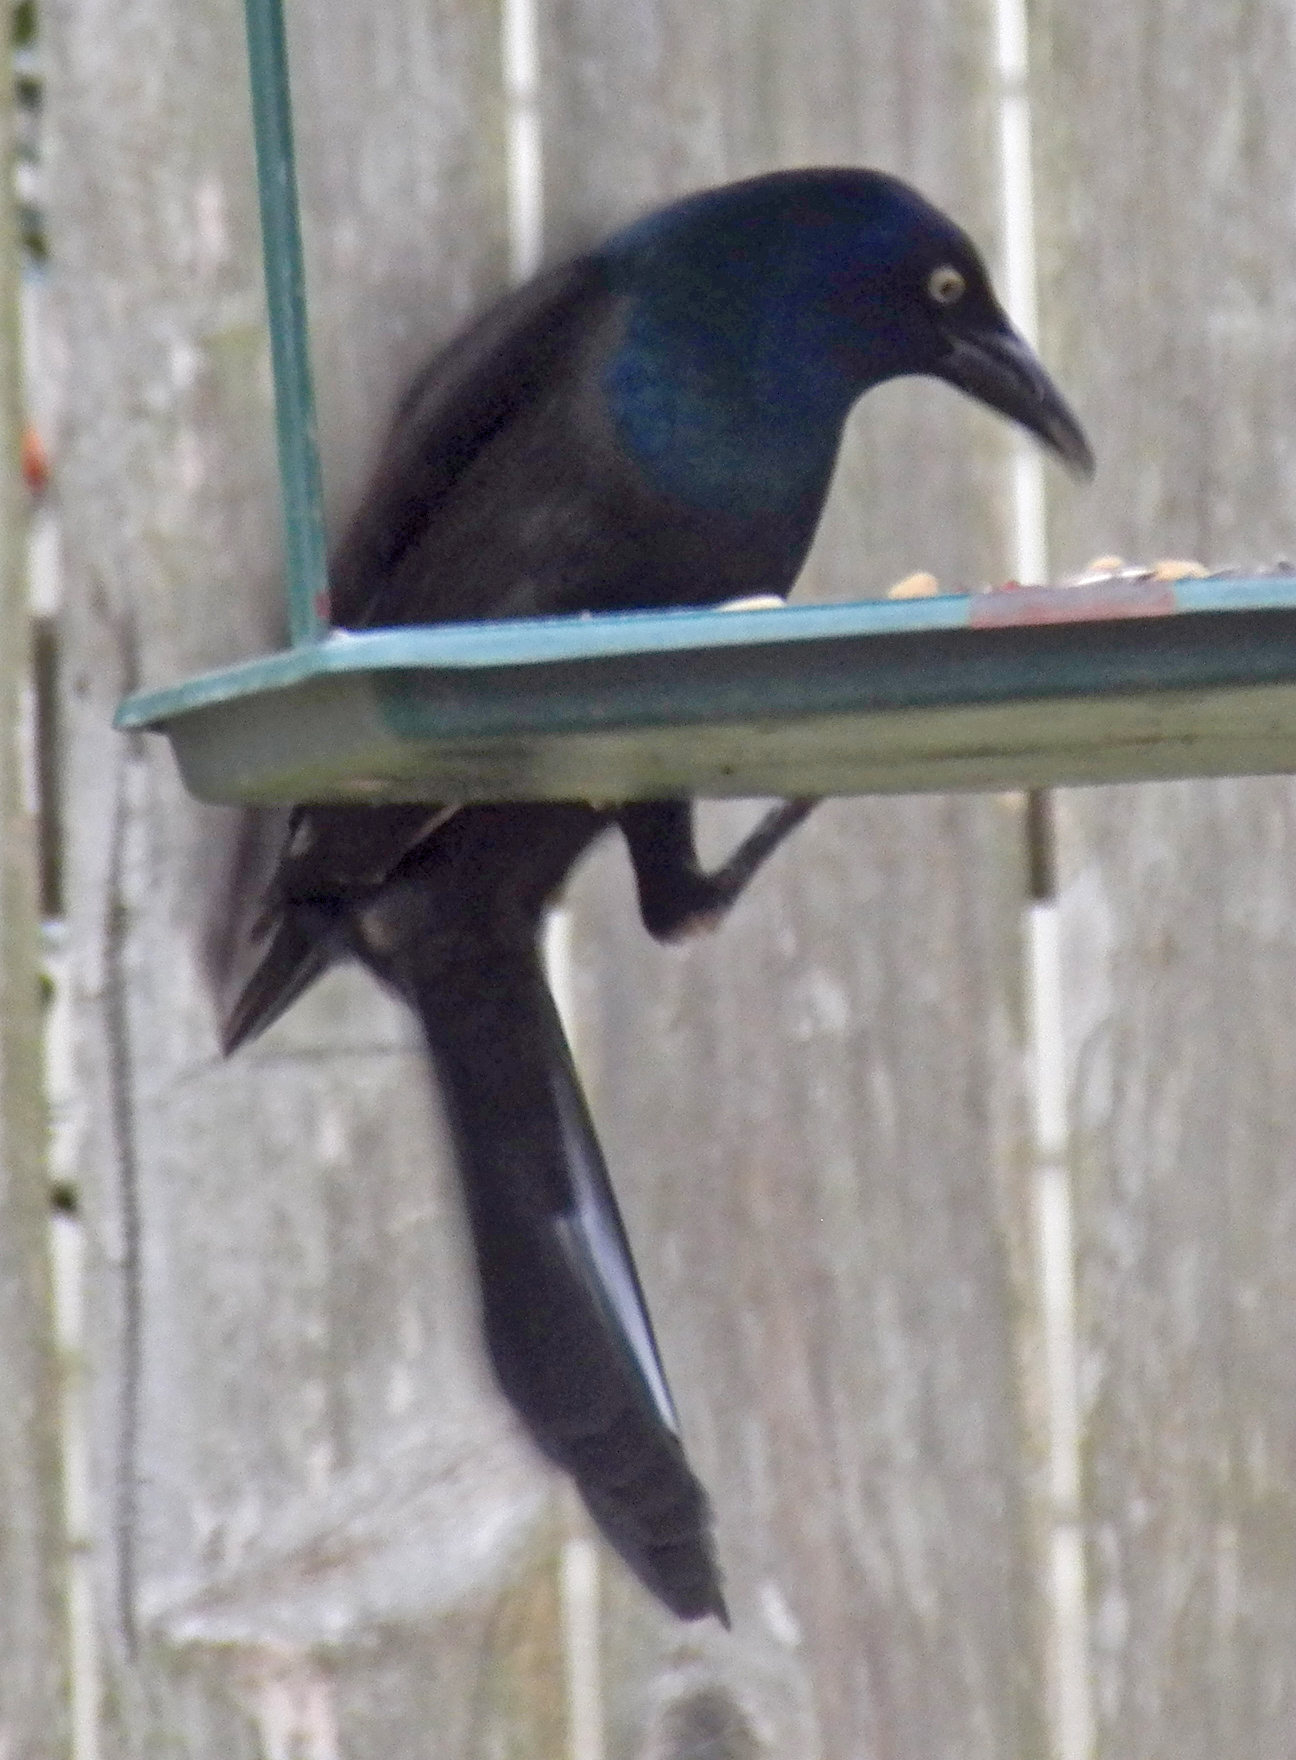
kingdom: Animalia
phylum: Chordata
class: Aves
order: Passeriformes
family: Icteridae
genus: Quiscalus
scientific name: Quiscalus mexicanus
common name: Great-tailed grackle
